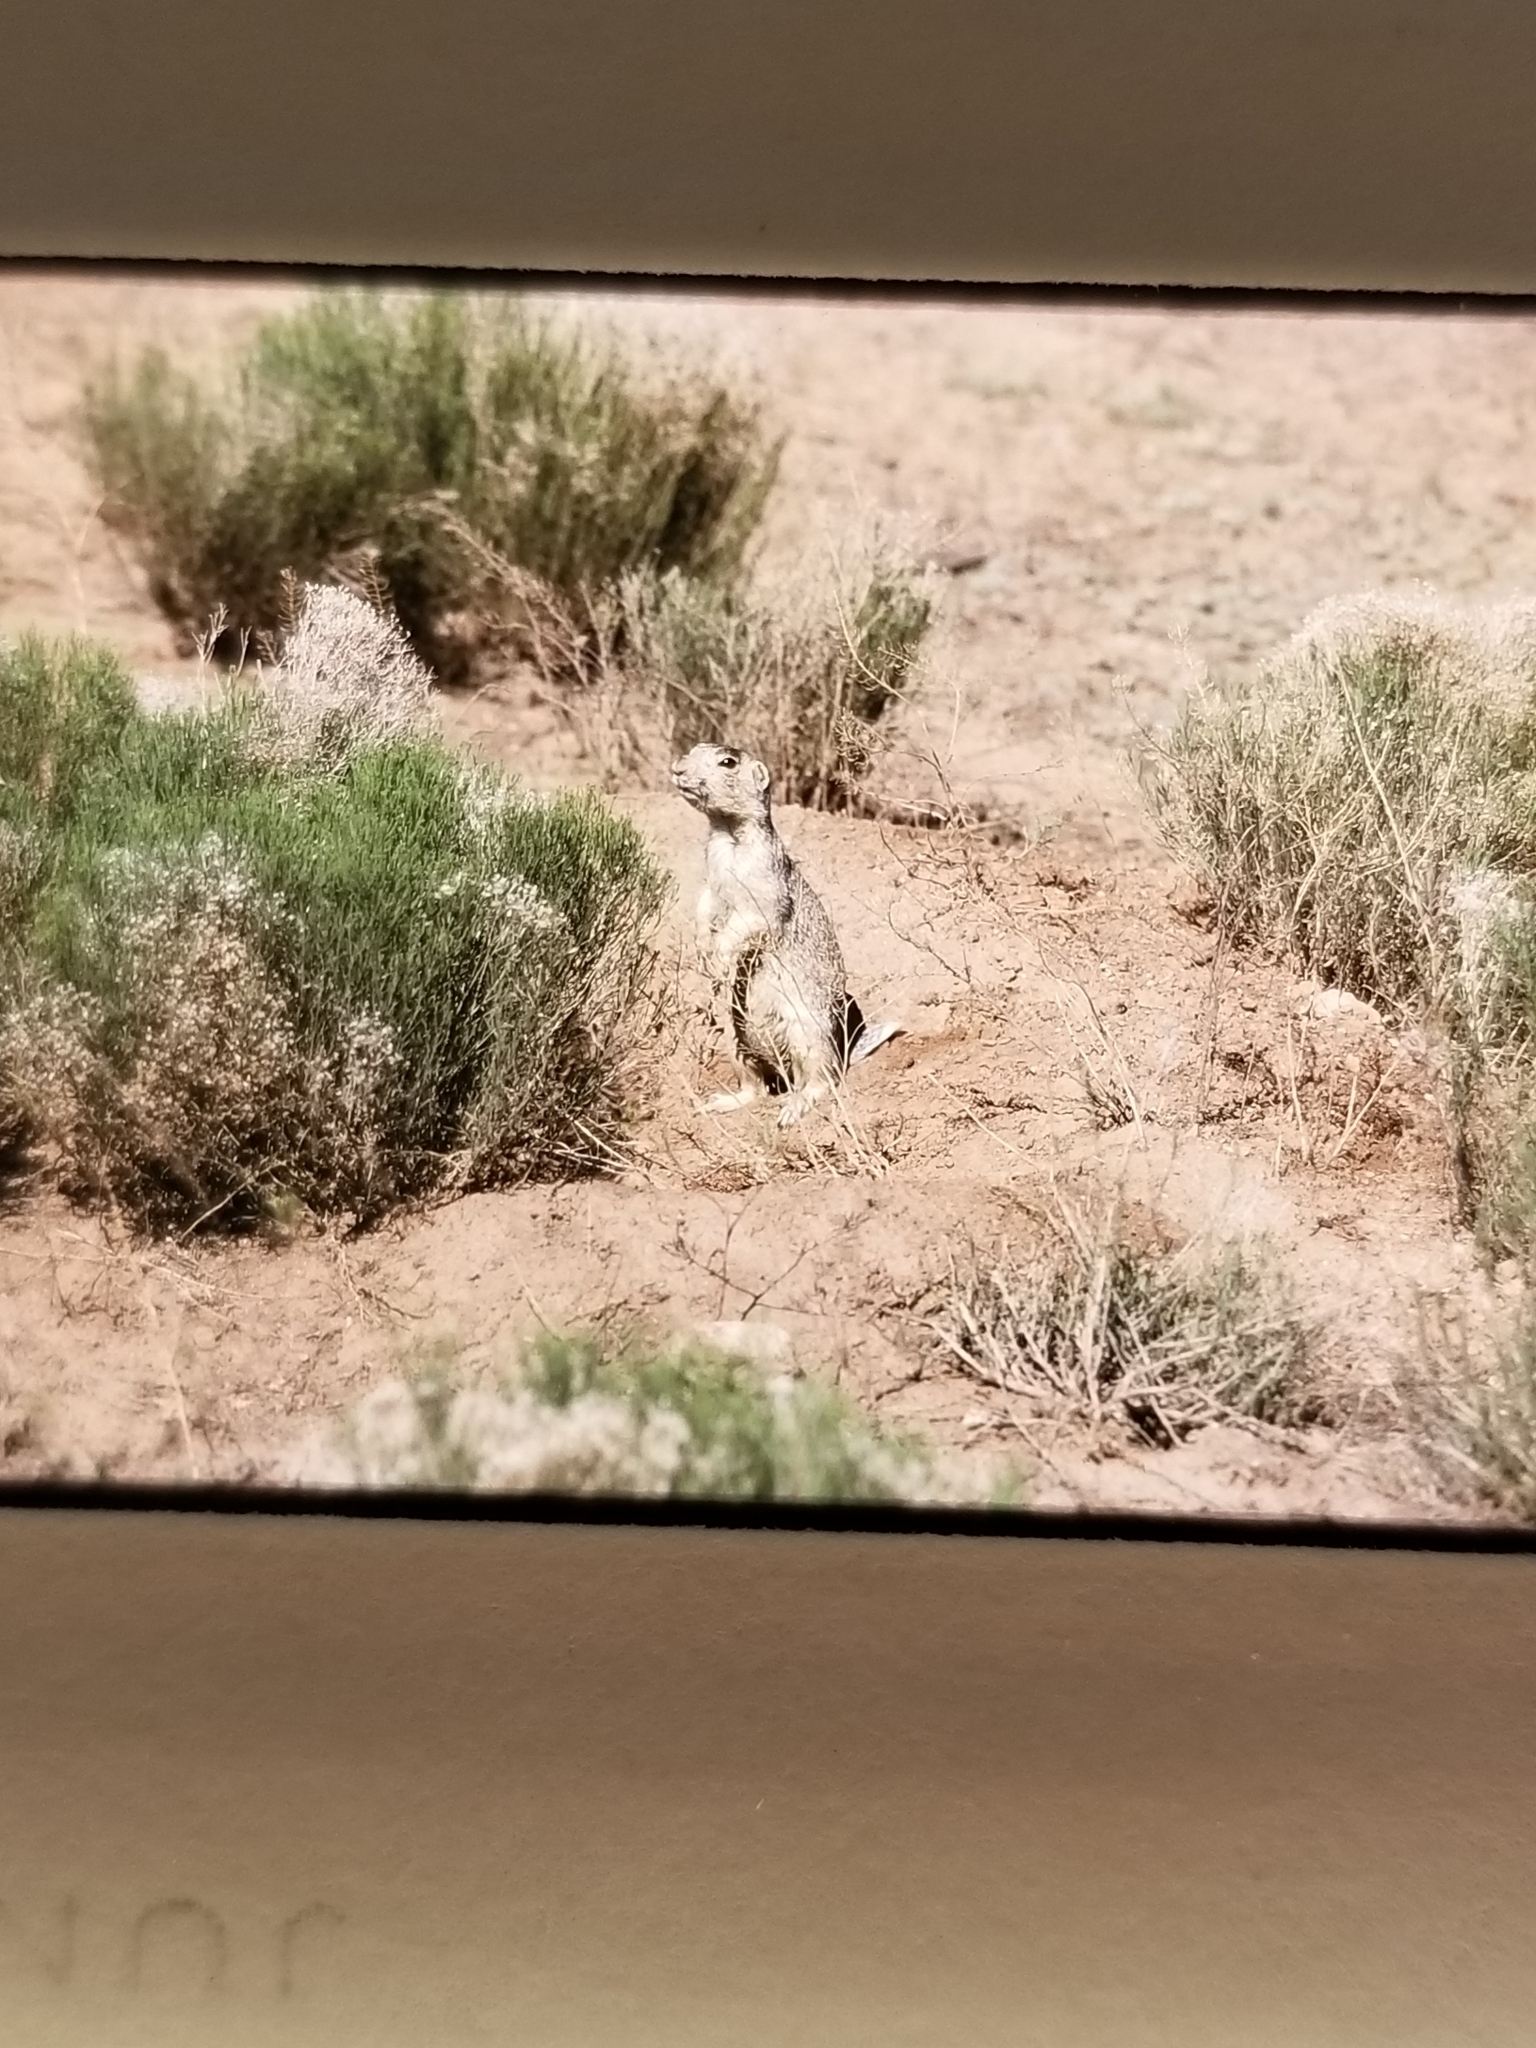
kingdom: Animalia
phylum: Chordata
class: Mammalia
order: Rodentia
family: Sciuridae
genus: Cynomys
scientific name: Cynomys gunnisoni
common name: Gunnison's prairie dog
